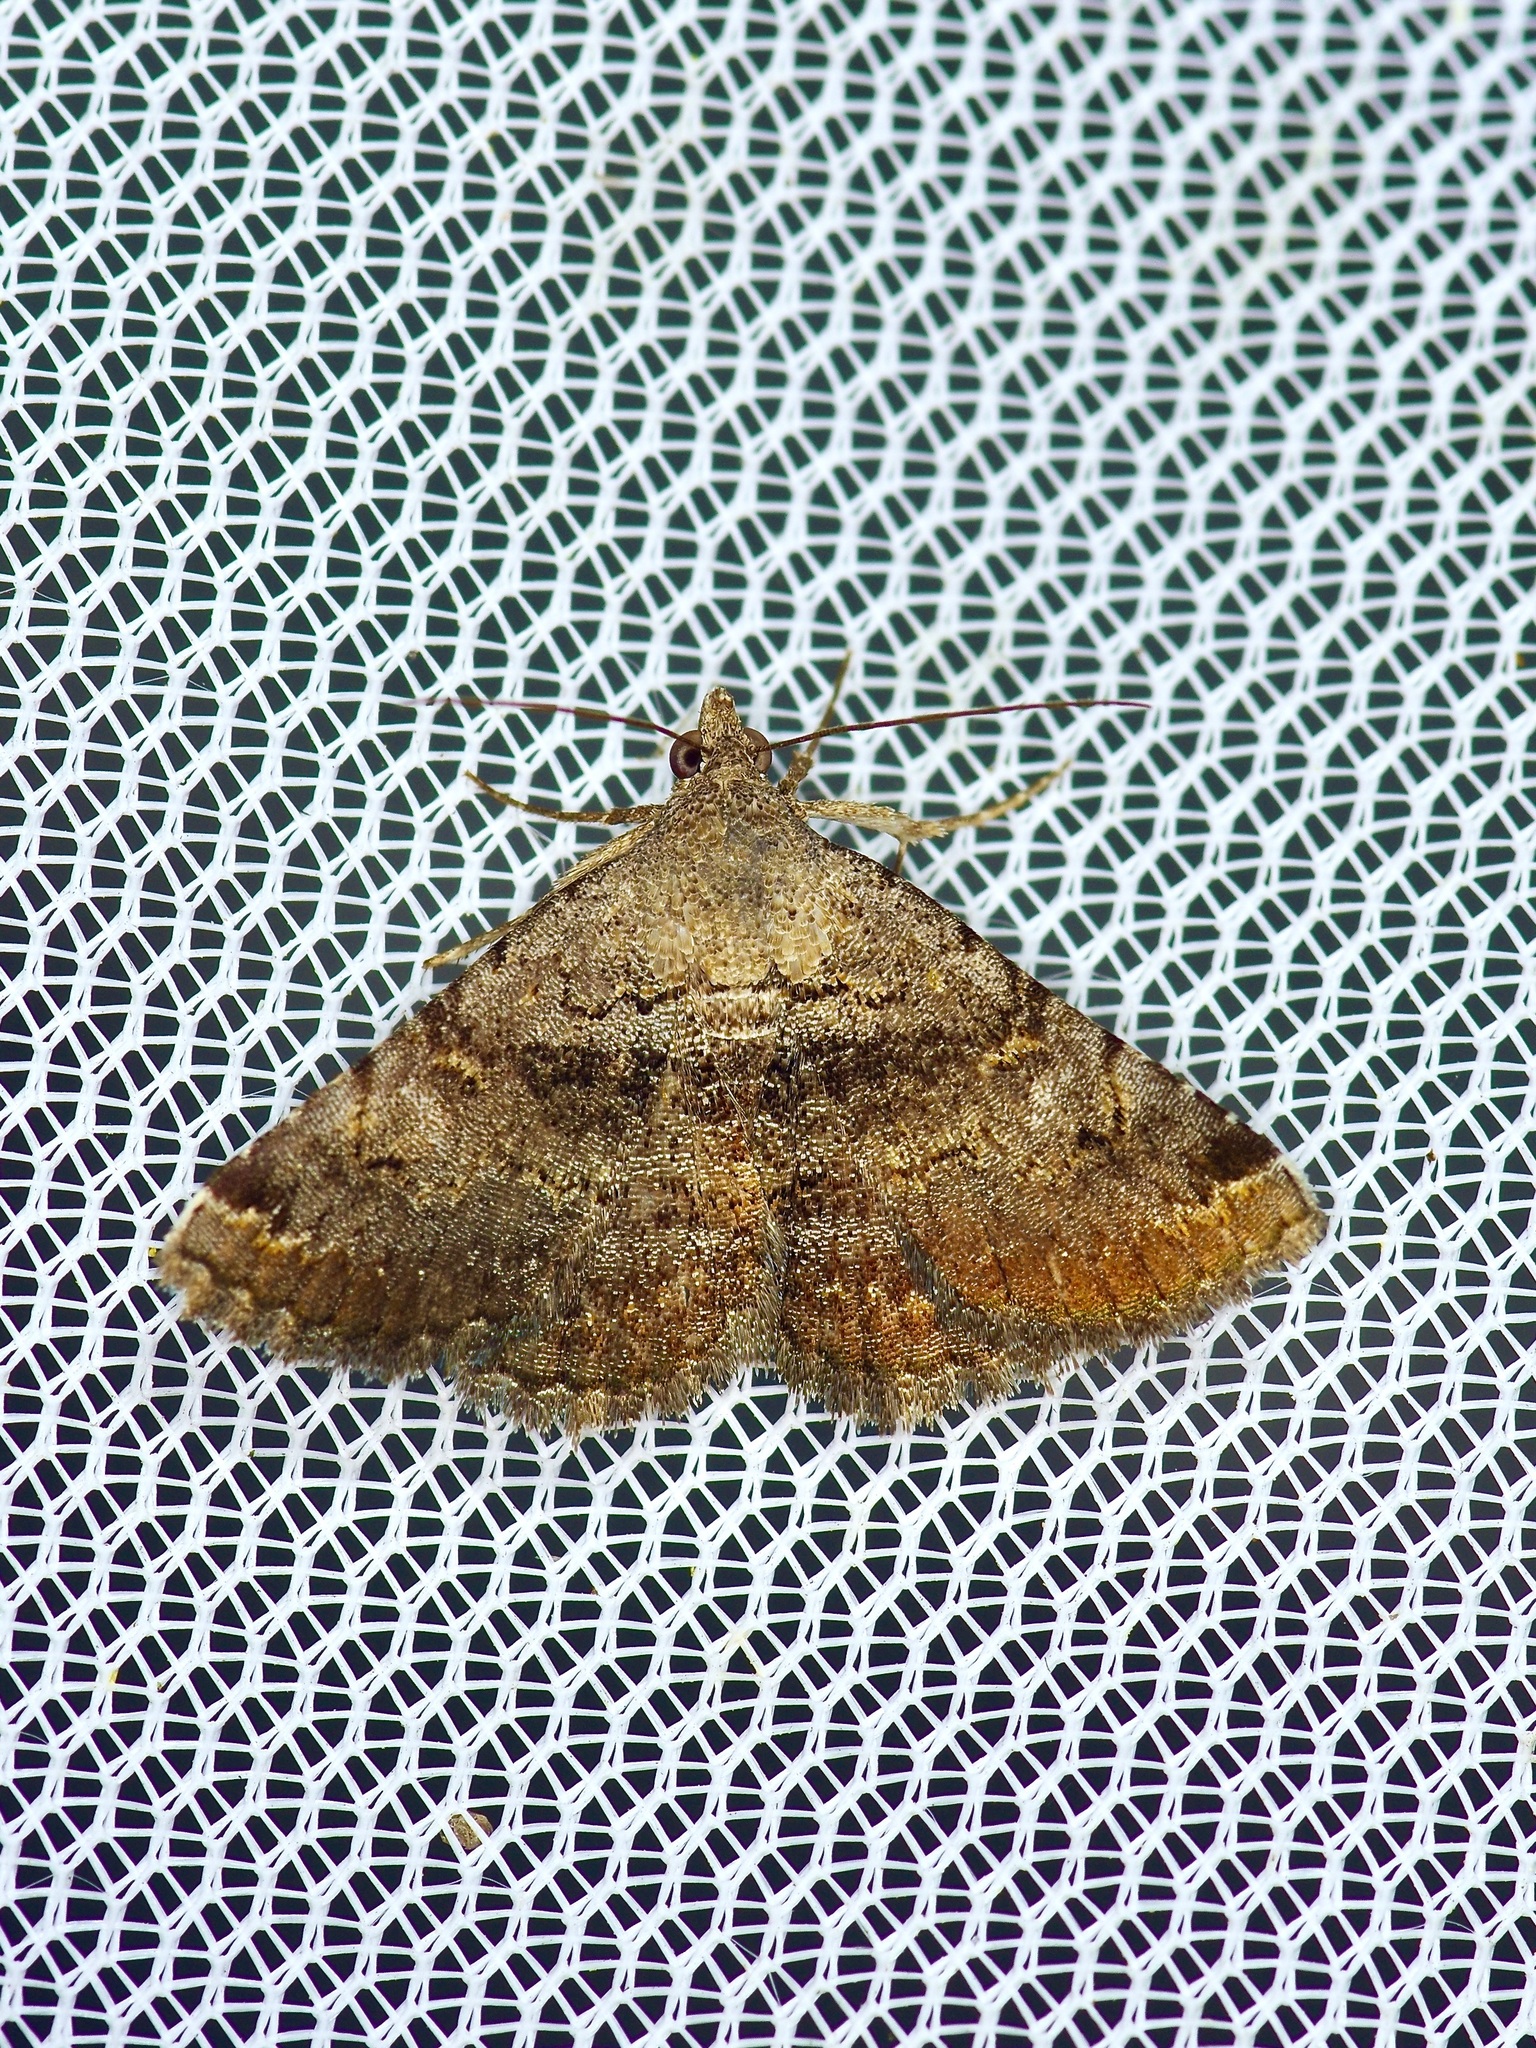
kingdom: Animalia
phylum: Arthropoda
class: Insecta
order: Lepidoptera
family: Erebidae
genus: Toxonprucha
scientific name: Toxonprucha crudelis
